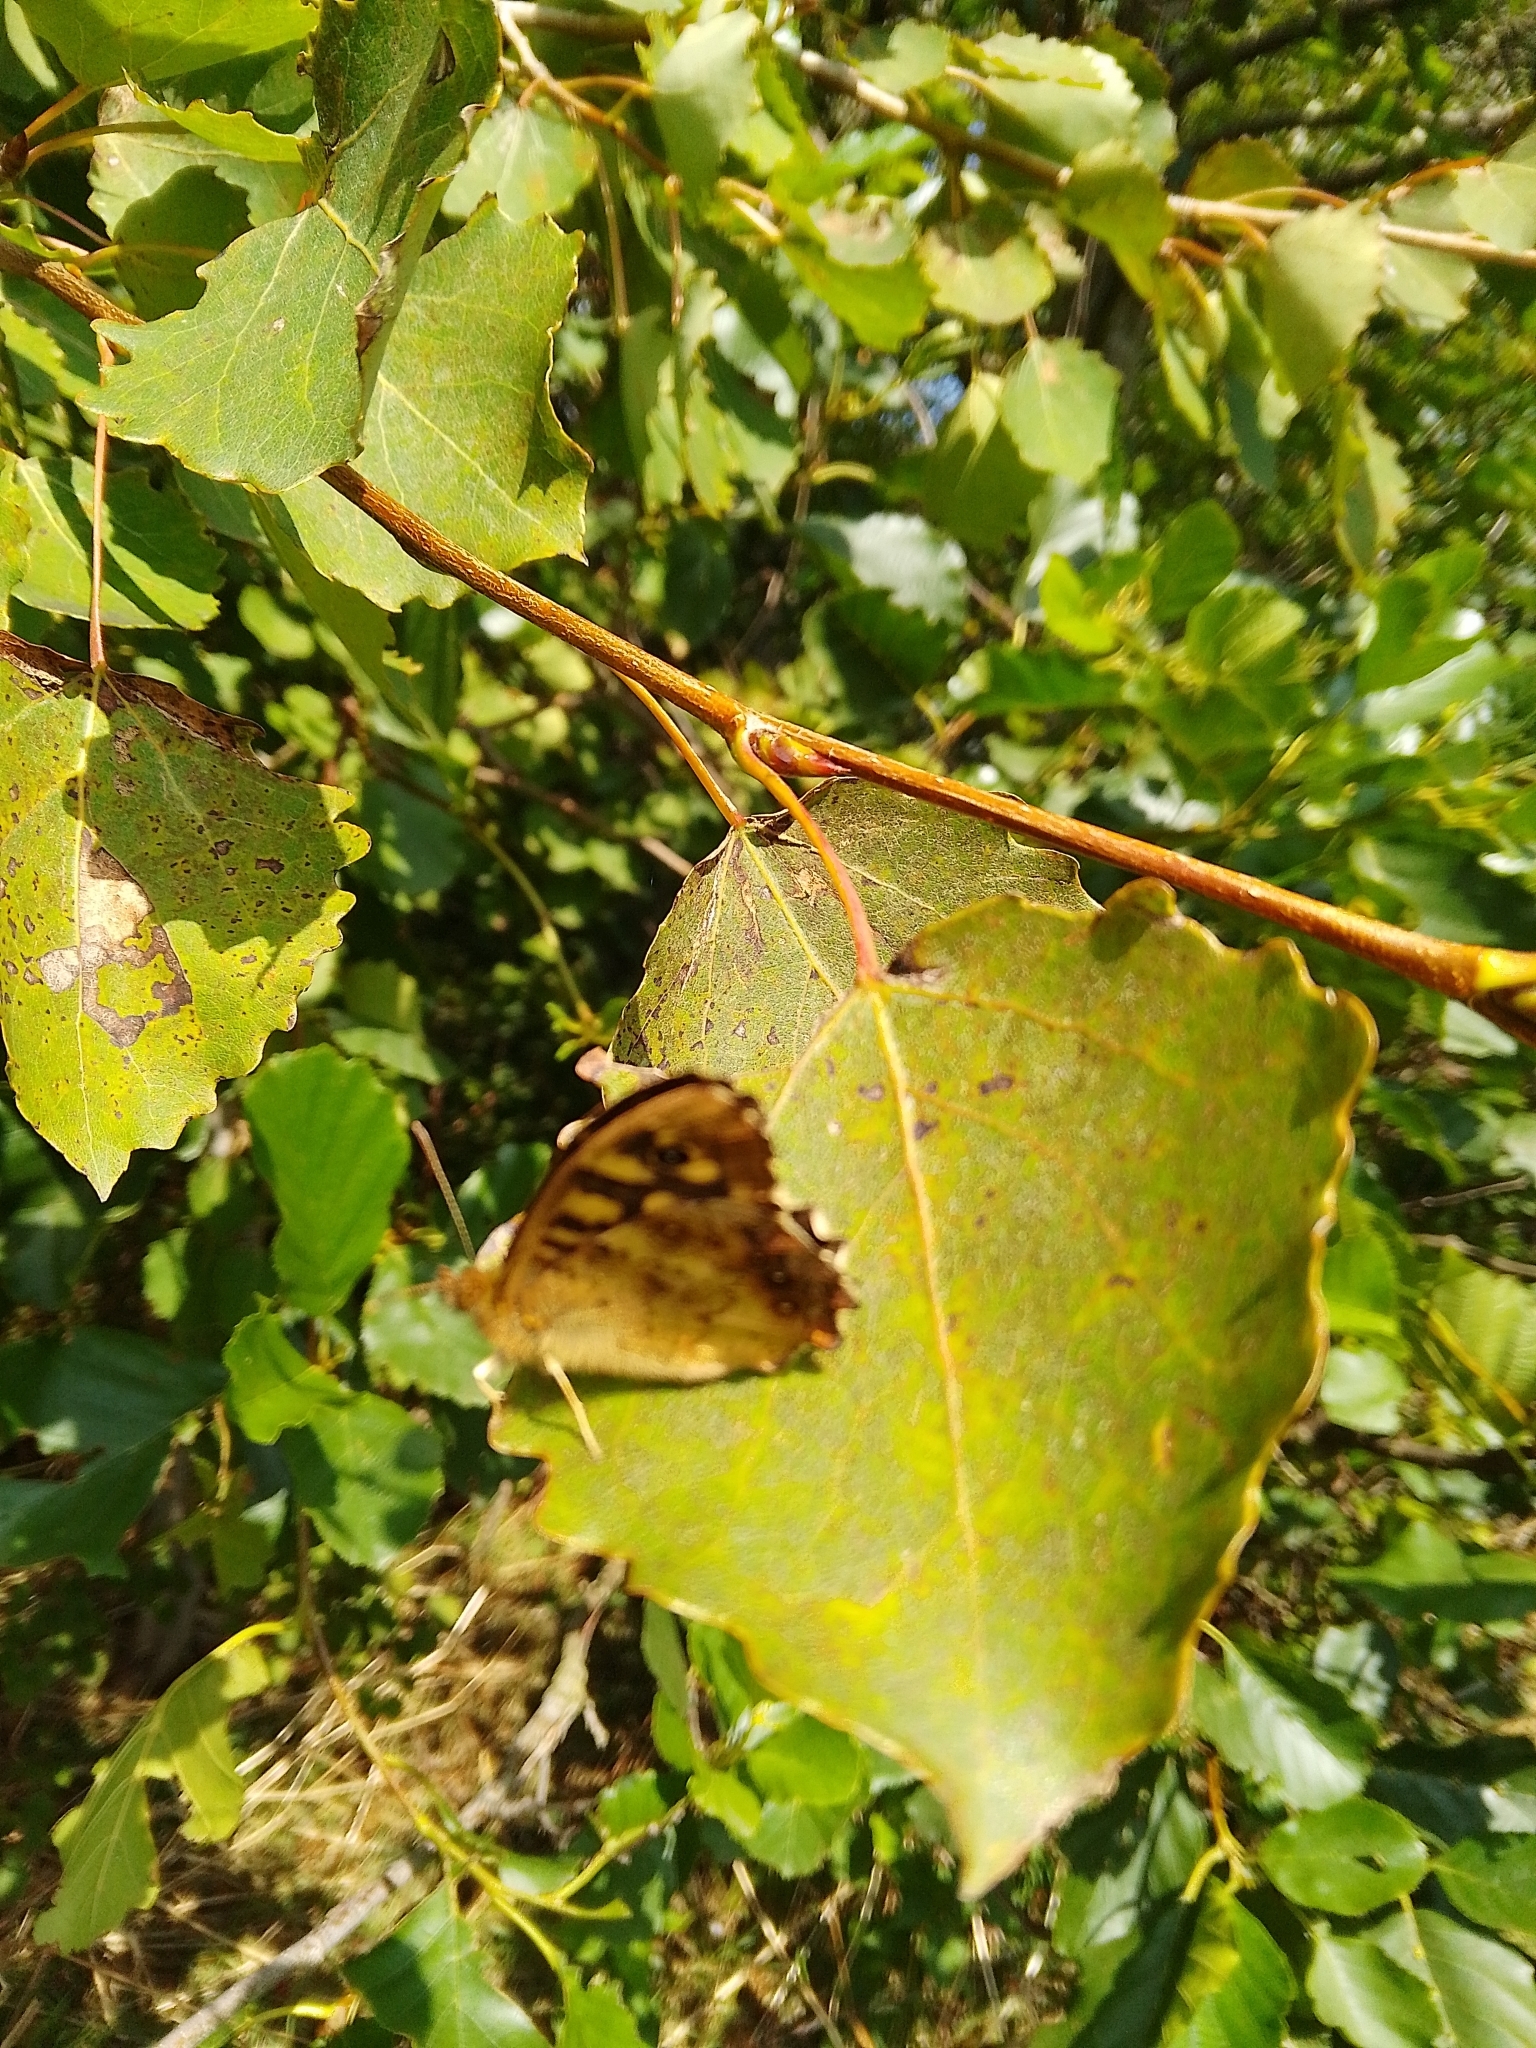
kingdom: Animalia
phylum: Arthropoda
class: Insecta
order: Lepidoptera
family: Nymphalidae
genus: Pararge
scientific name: Pararge aegeria
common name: Speckled wood
